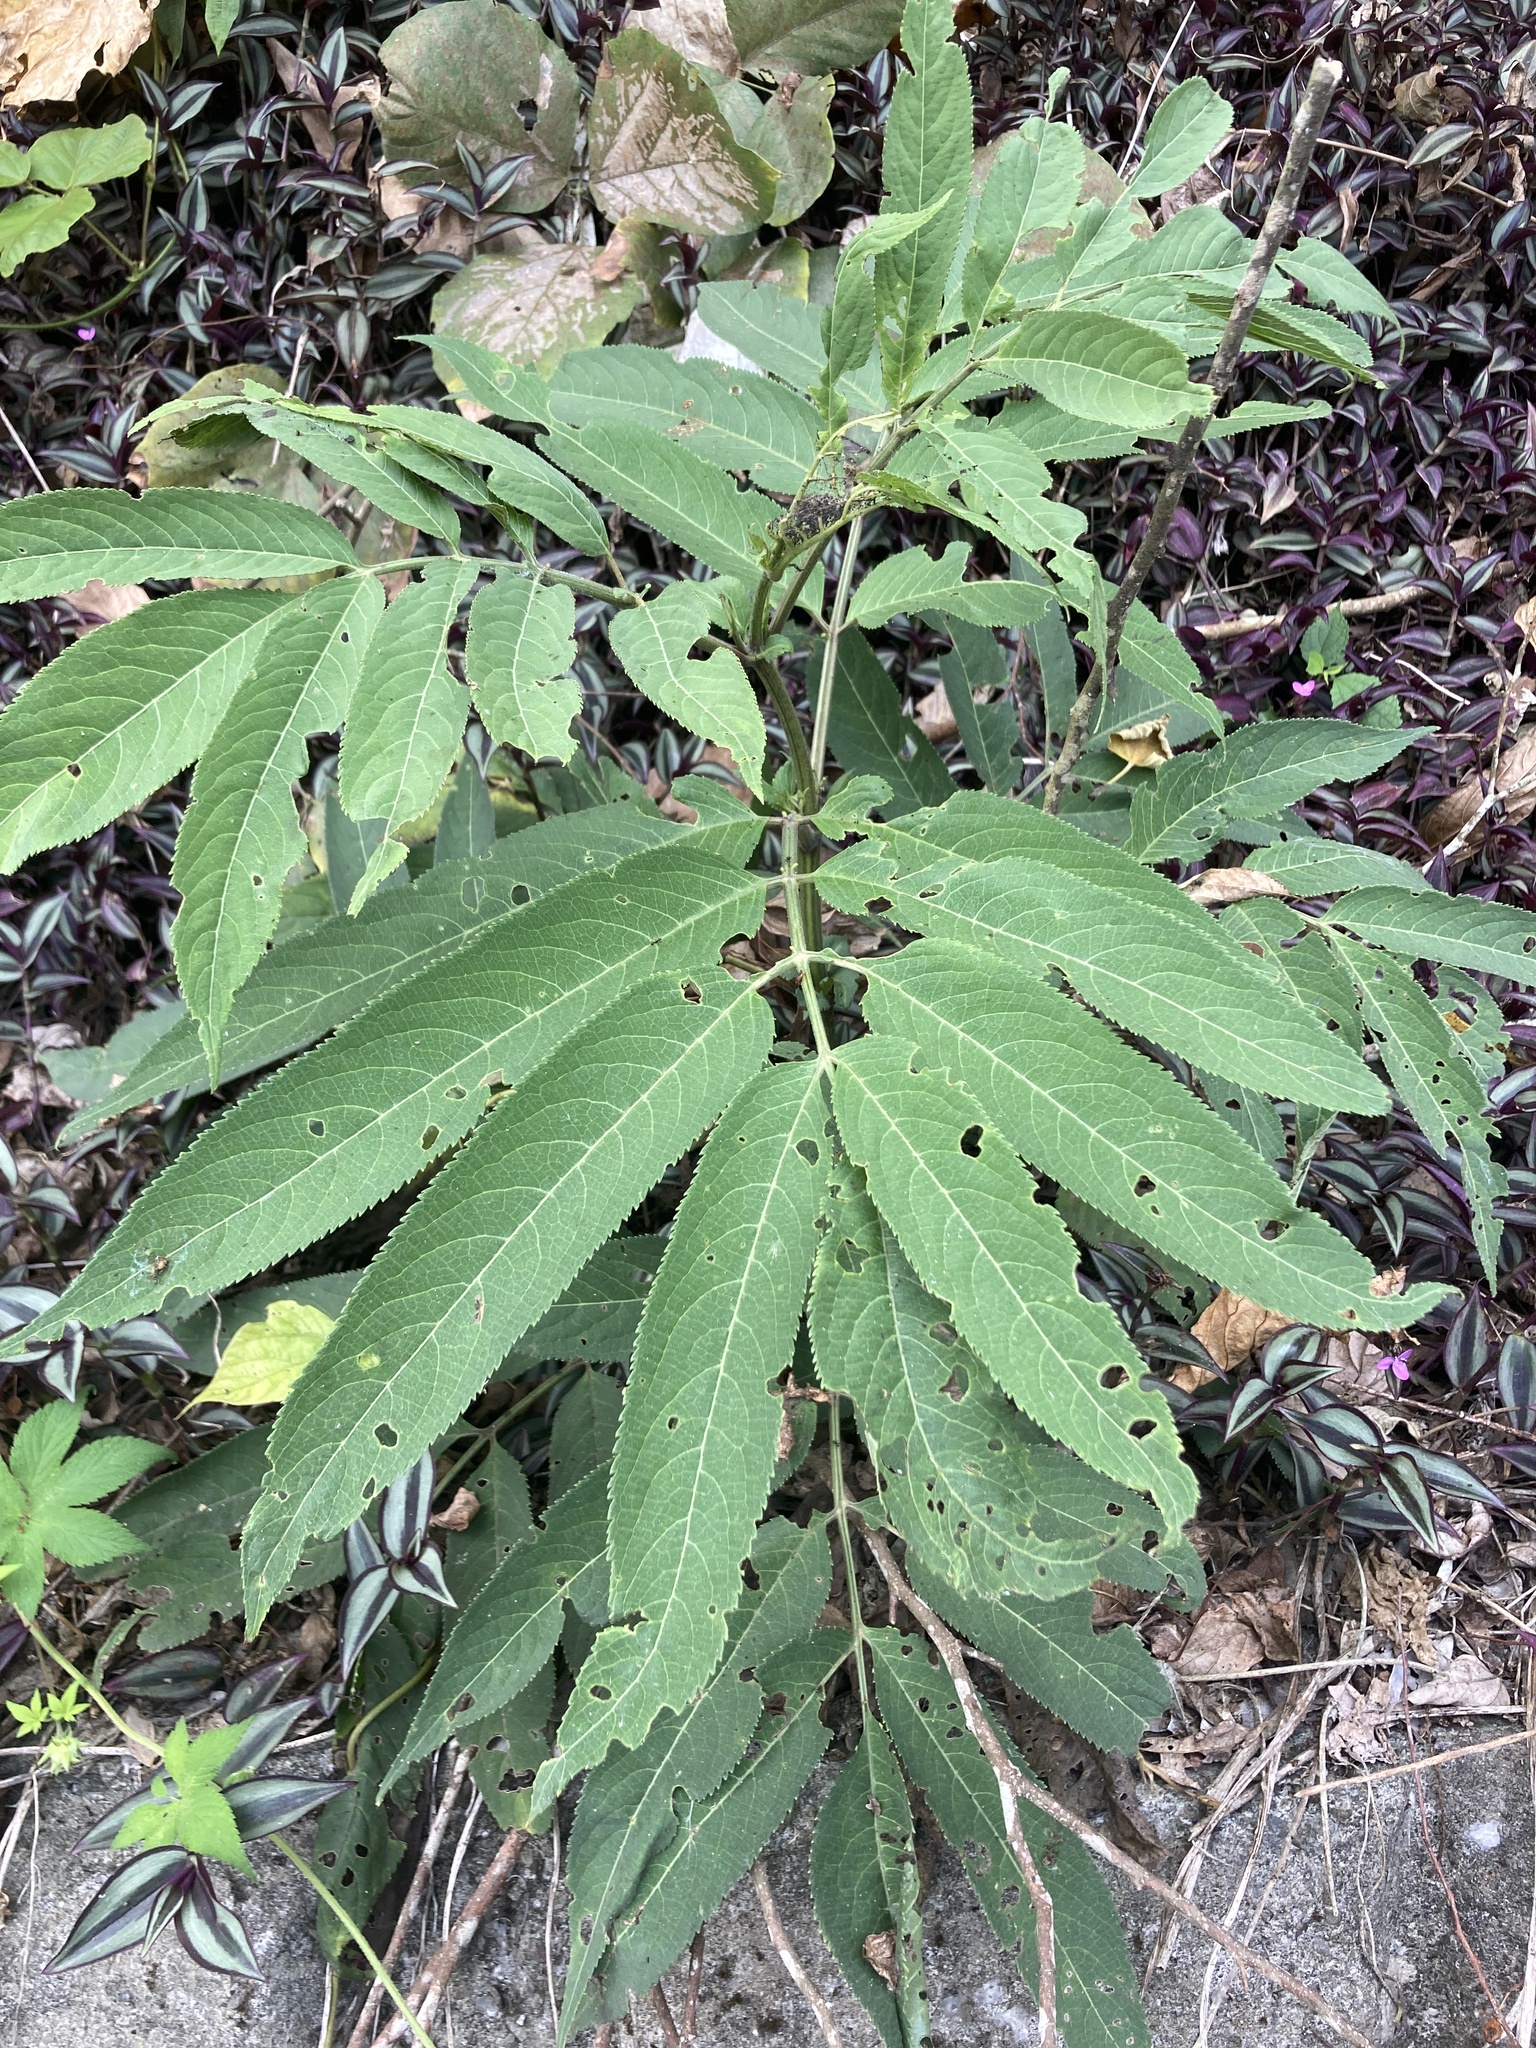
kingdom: Plantae
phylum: Tracheophyta
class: Magnoliopsida
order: Dipsacales
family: Viburnaceae
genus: Sambucus
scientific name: Sambucus javanica
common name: Chinese elder
